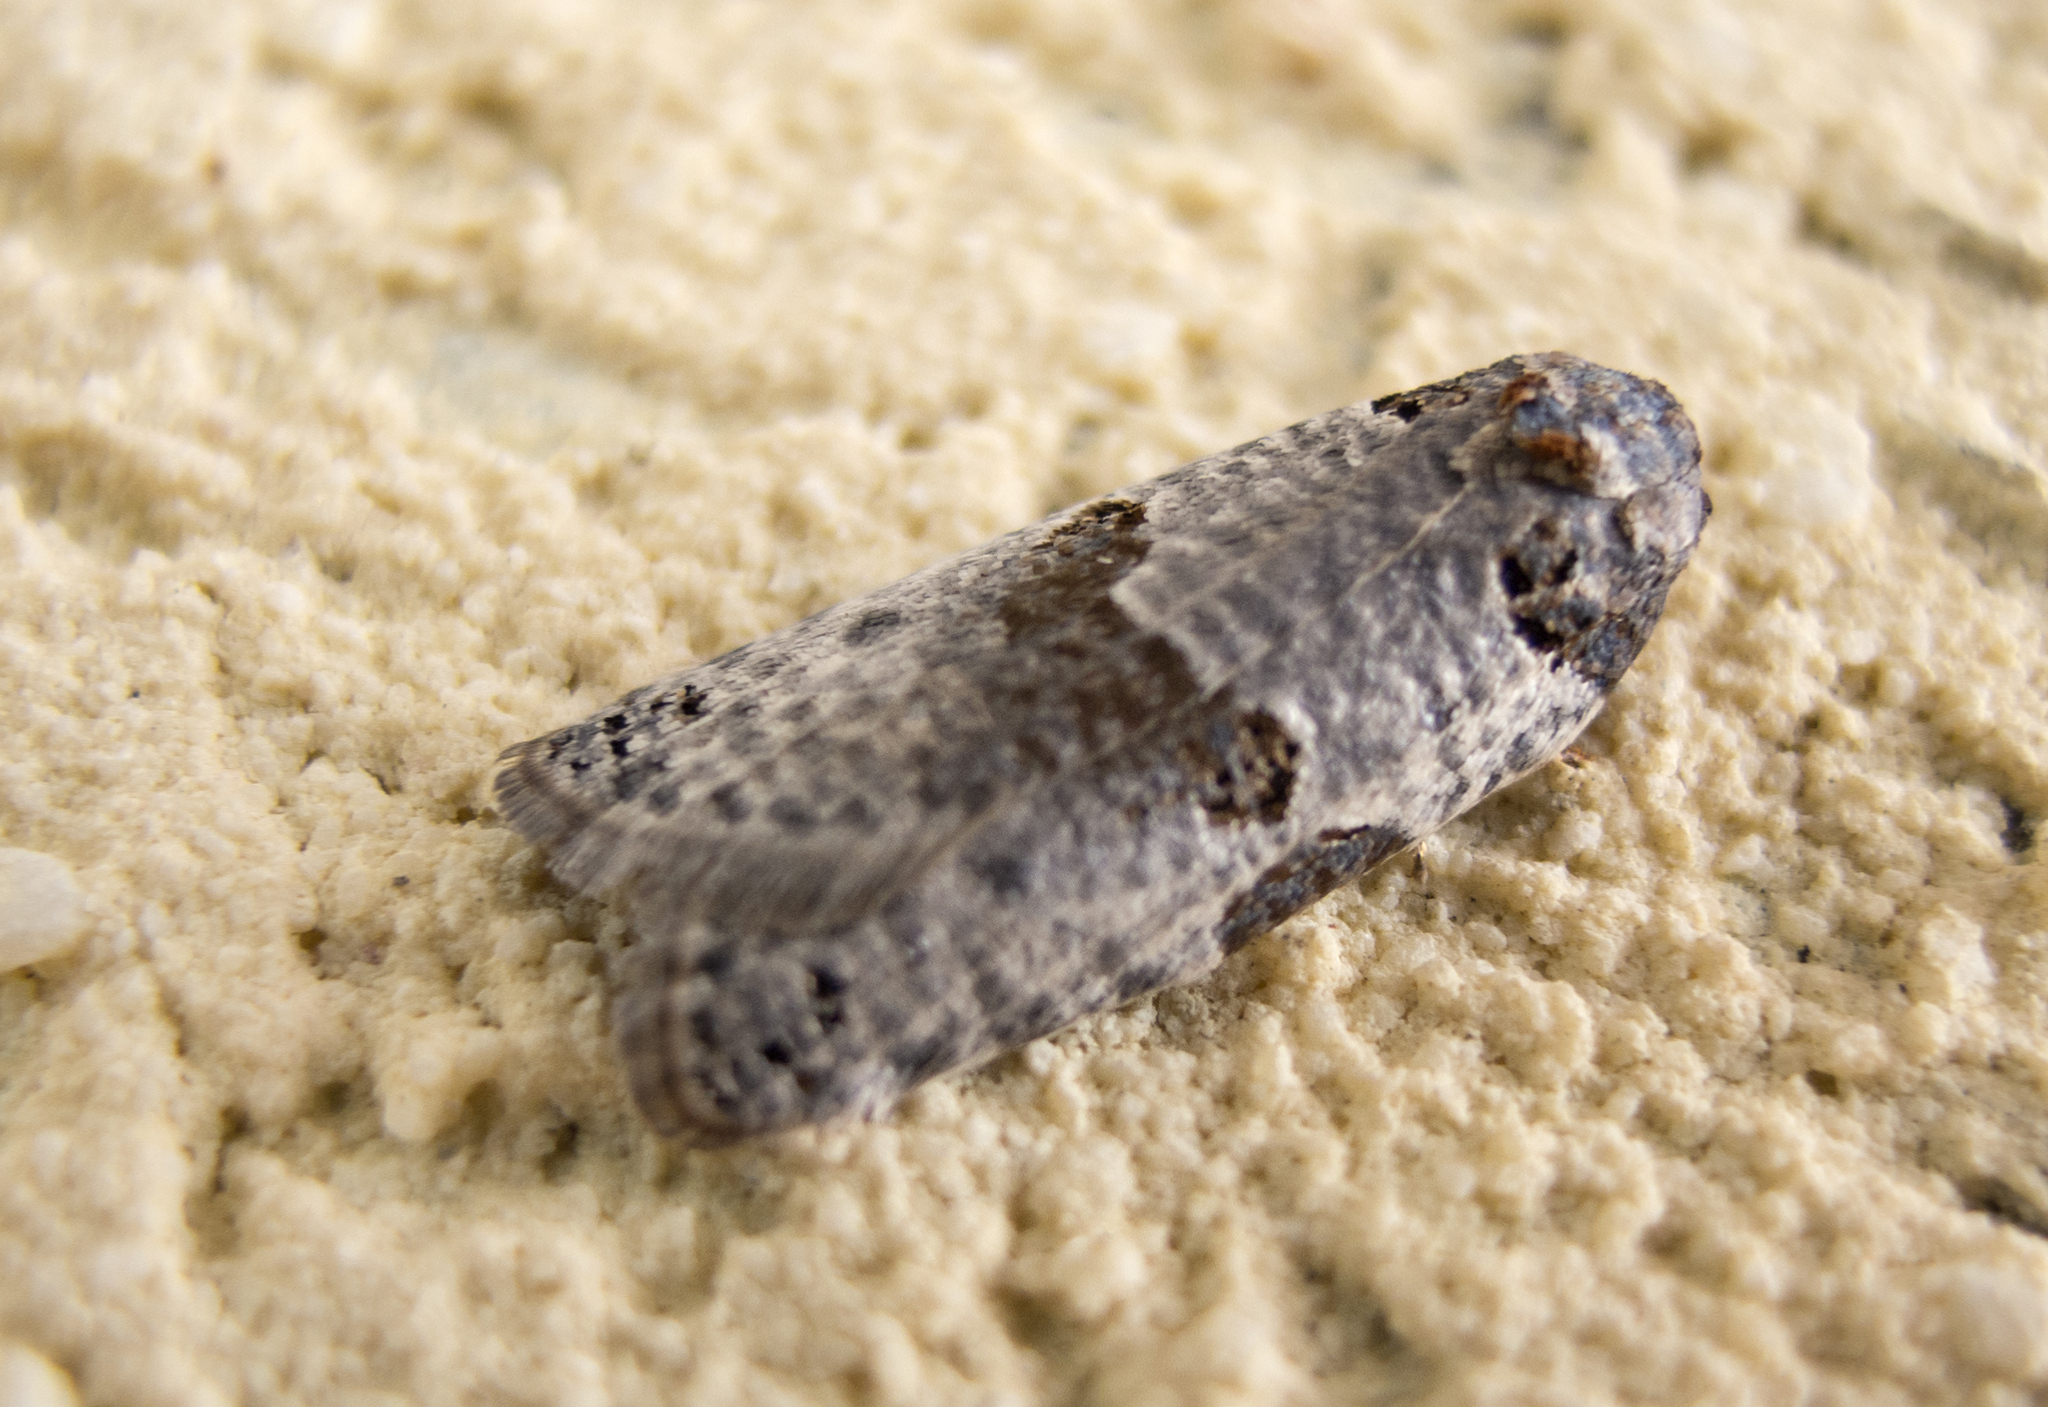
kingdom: Animalia
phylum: Arthropoda
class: Insecta
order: Lepidoptera
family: Tortricidae
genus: Pseudeulia
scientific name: Pseudeulia asinana
